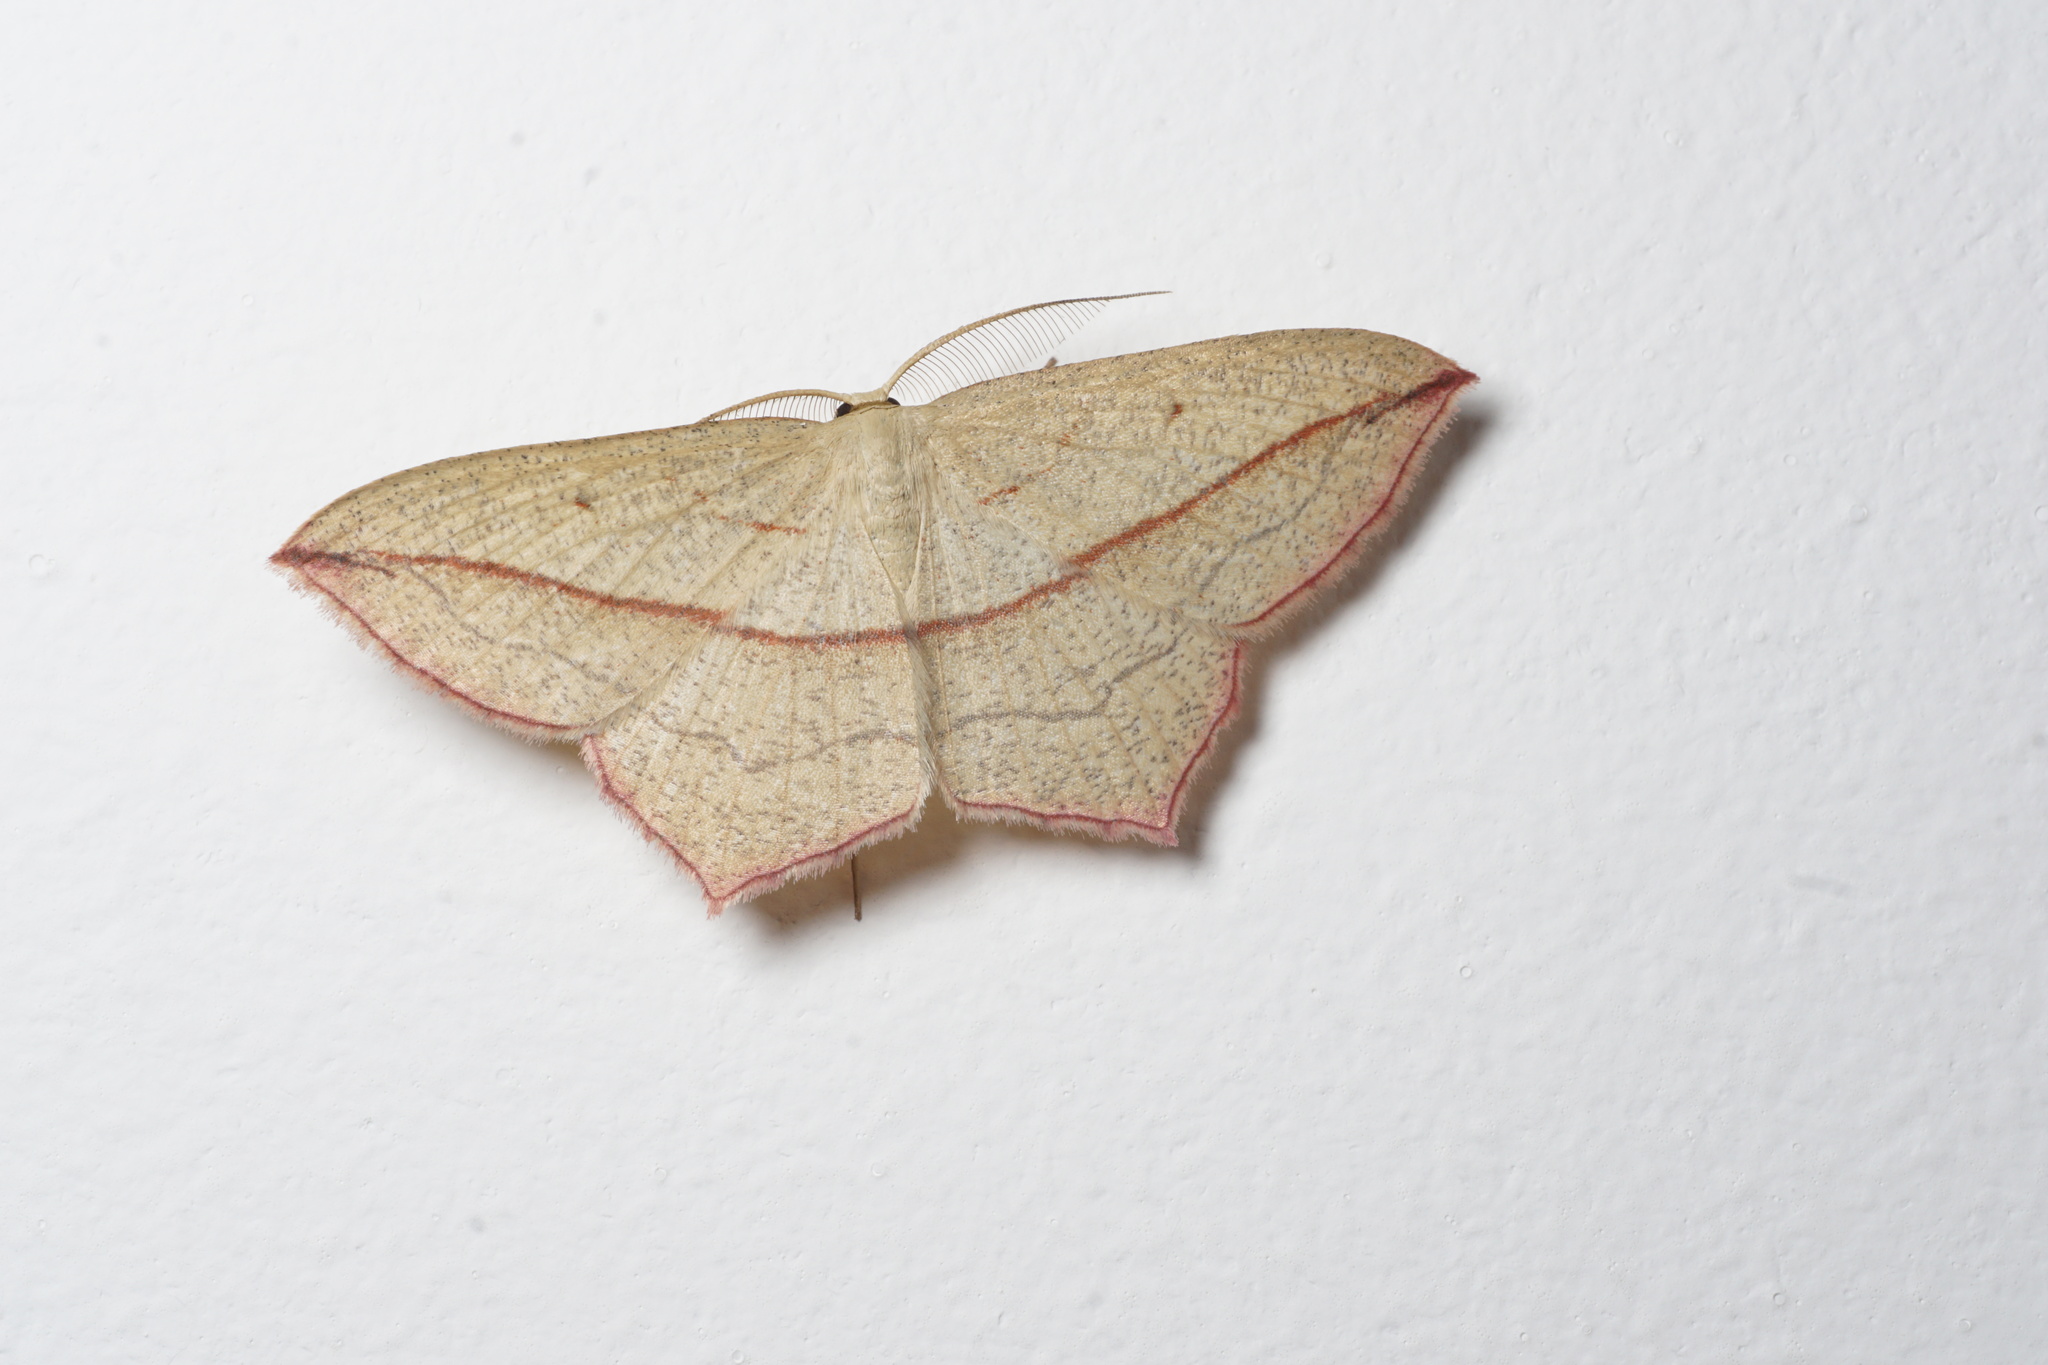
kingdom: Animalia
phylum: Arthropoda
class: Insecta
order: Lepidoptera
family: Geometridae
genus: Timandra
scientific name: Timandra comae
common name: Blood-vein
